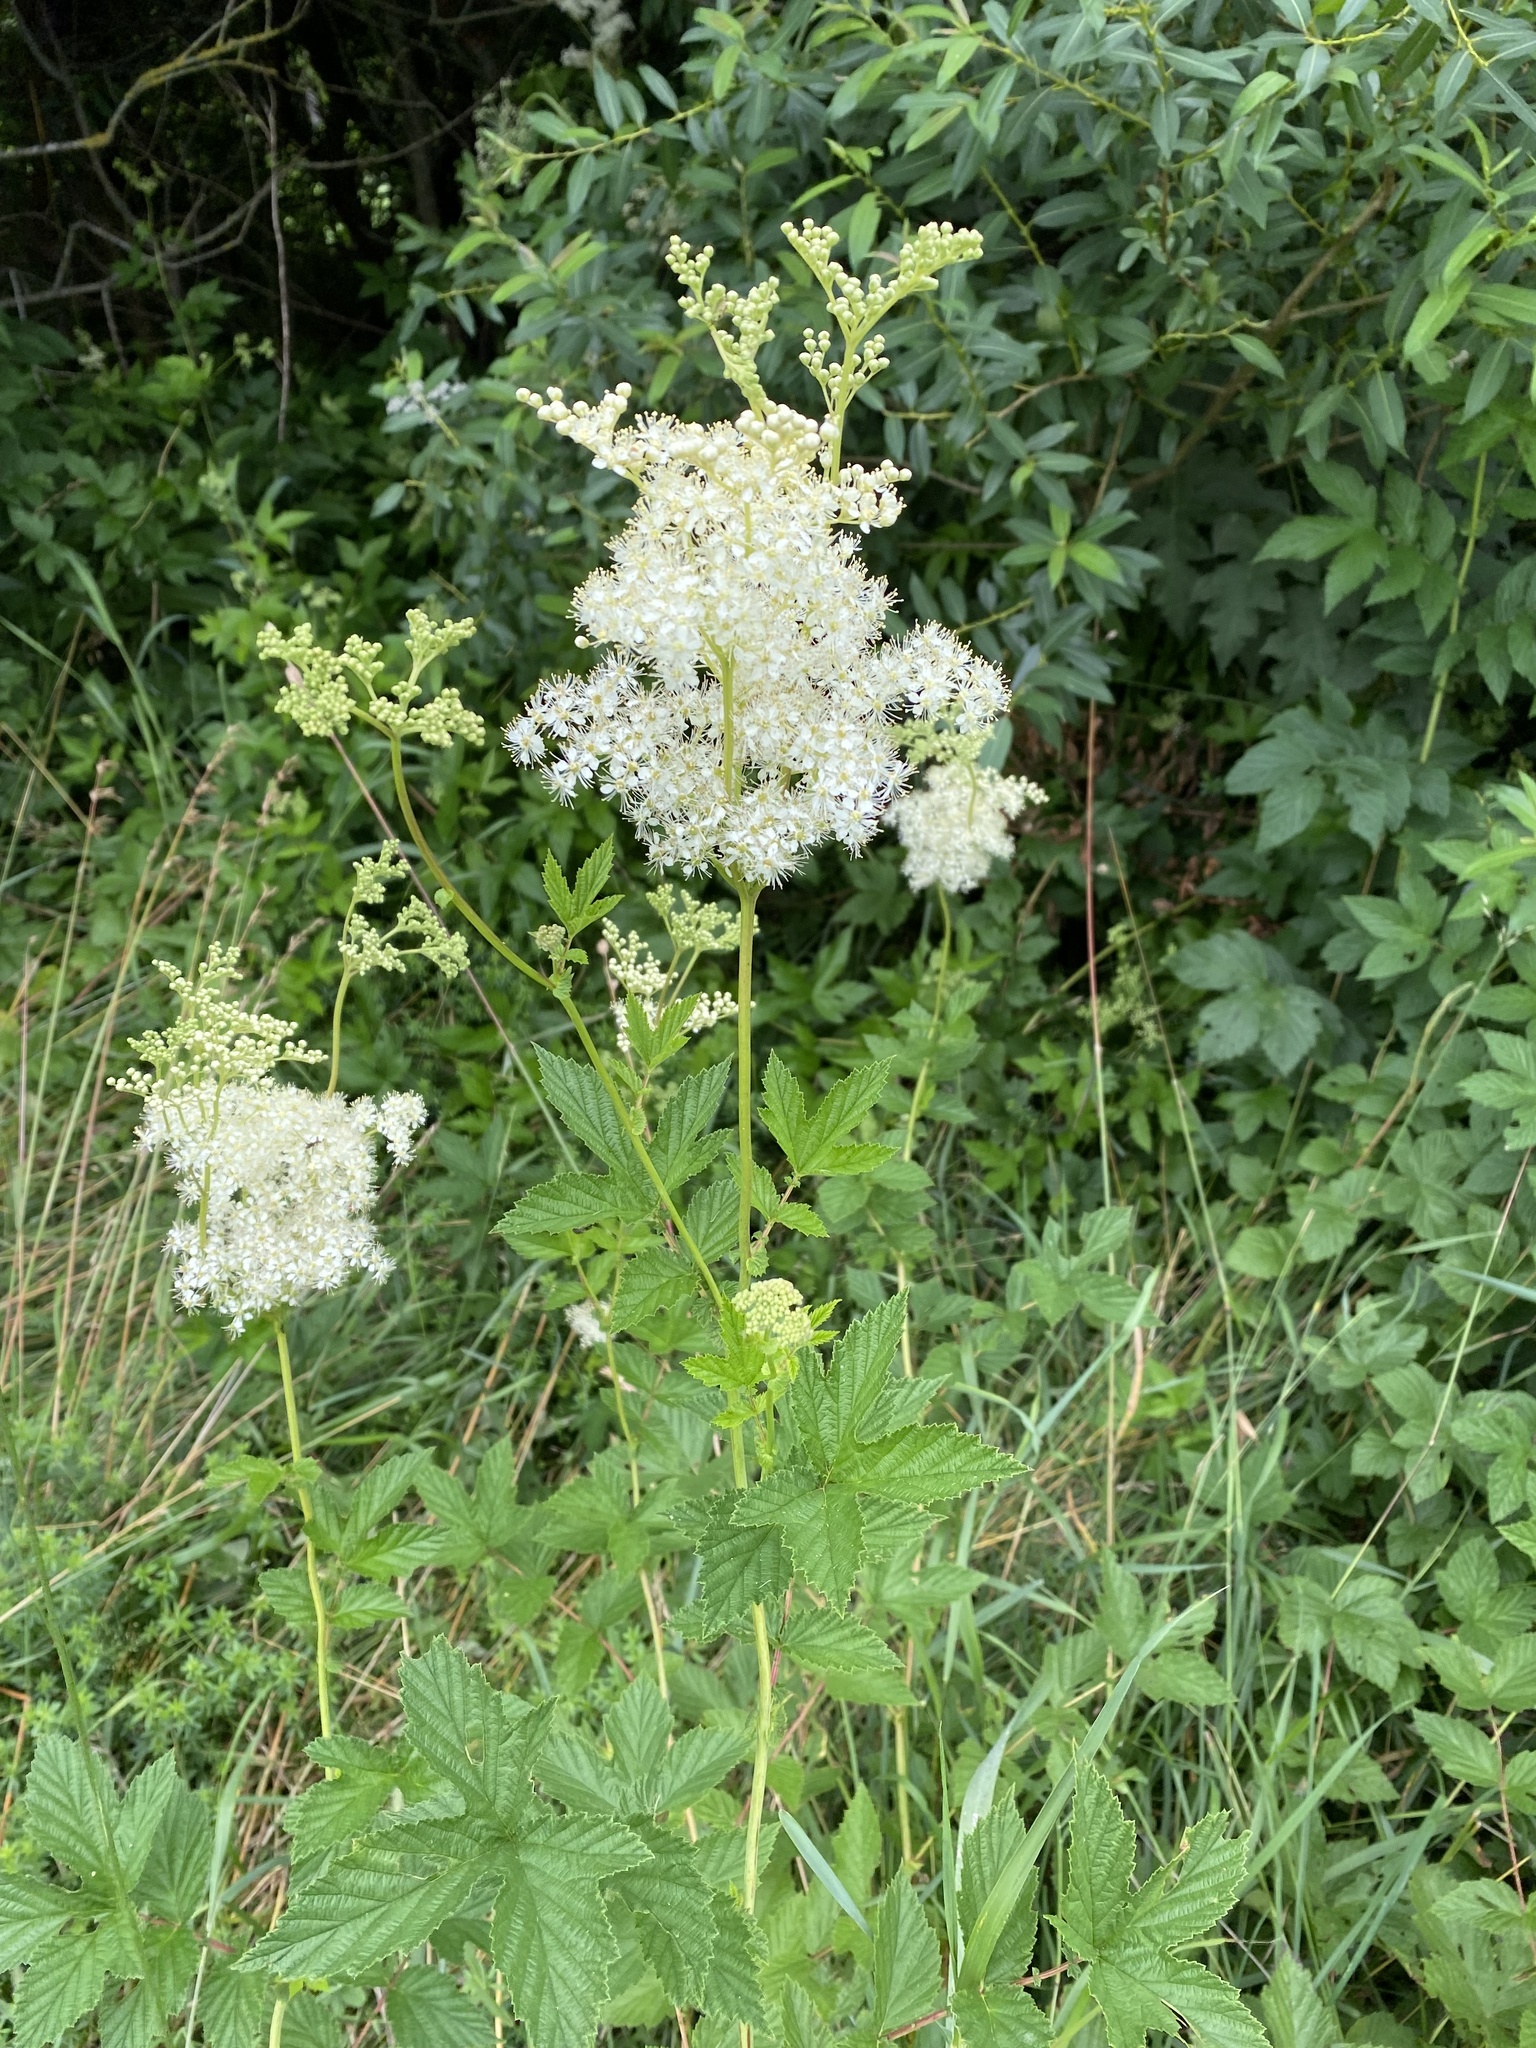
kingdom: Plantae
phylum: Tracheophyta
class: Magnoliopsida
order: Rosales
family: Rosaceae
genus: Filipendula
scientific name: Filipendula ulmaria
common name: Meadowsweet
